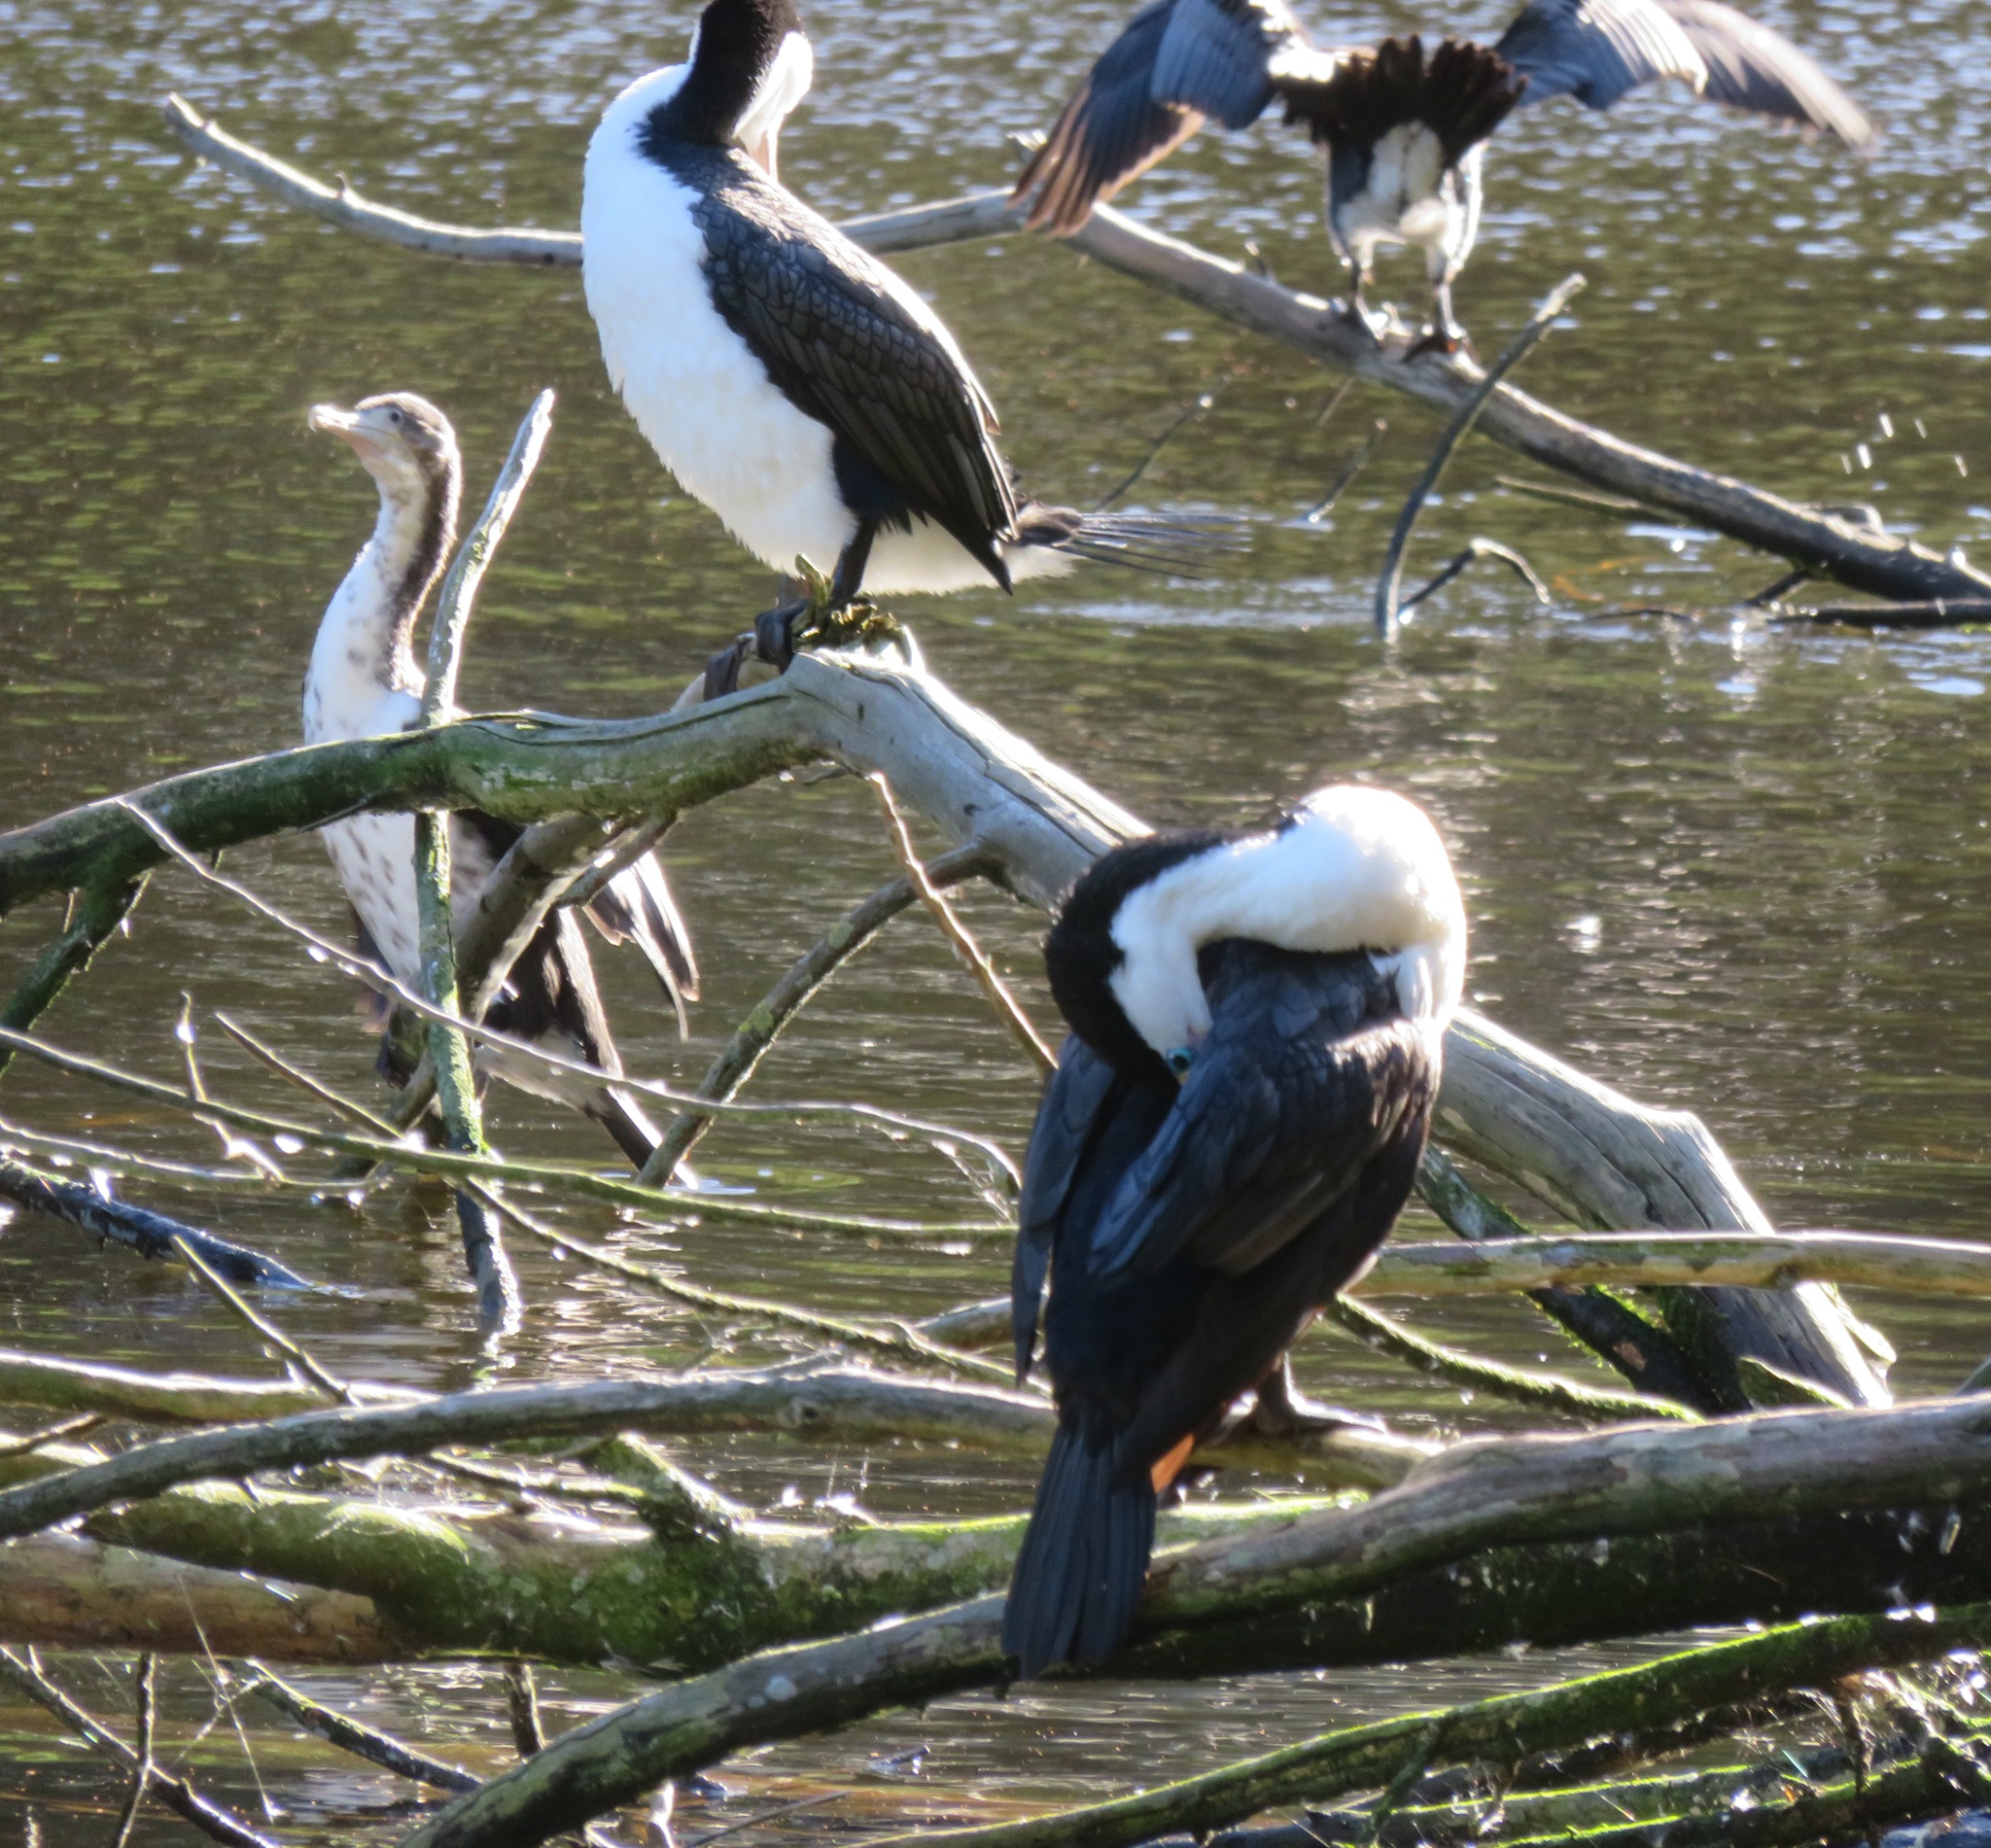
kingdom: Animalia
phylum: Chordata
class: Aves
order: Suliformes
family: Phalacrocoracidae
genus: Phalacrocorax
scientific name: Phalacrocorax varius
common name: Pied cormorant
